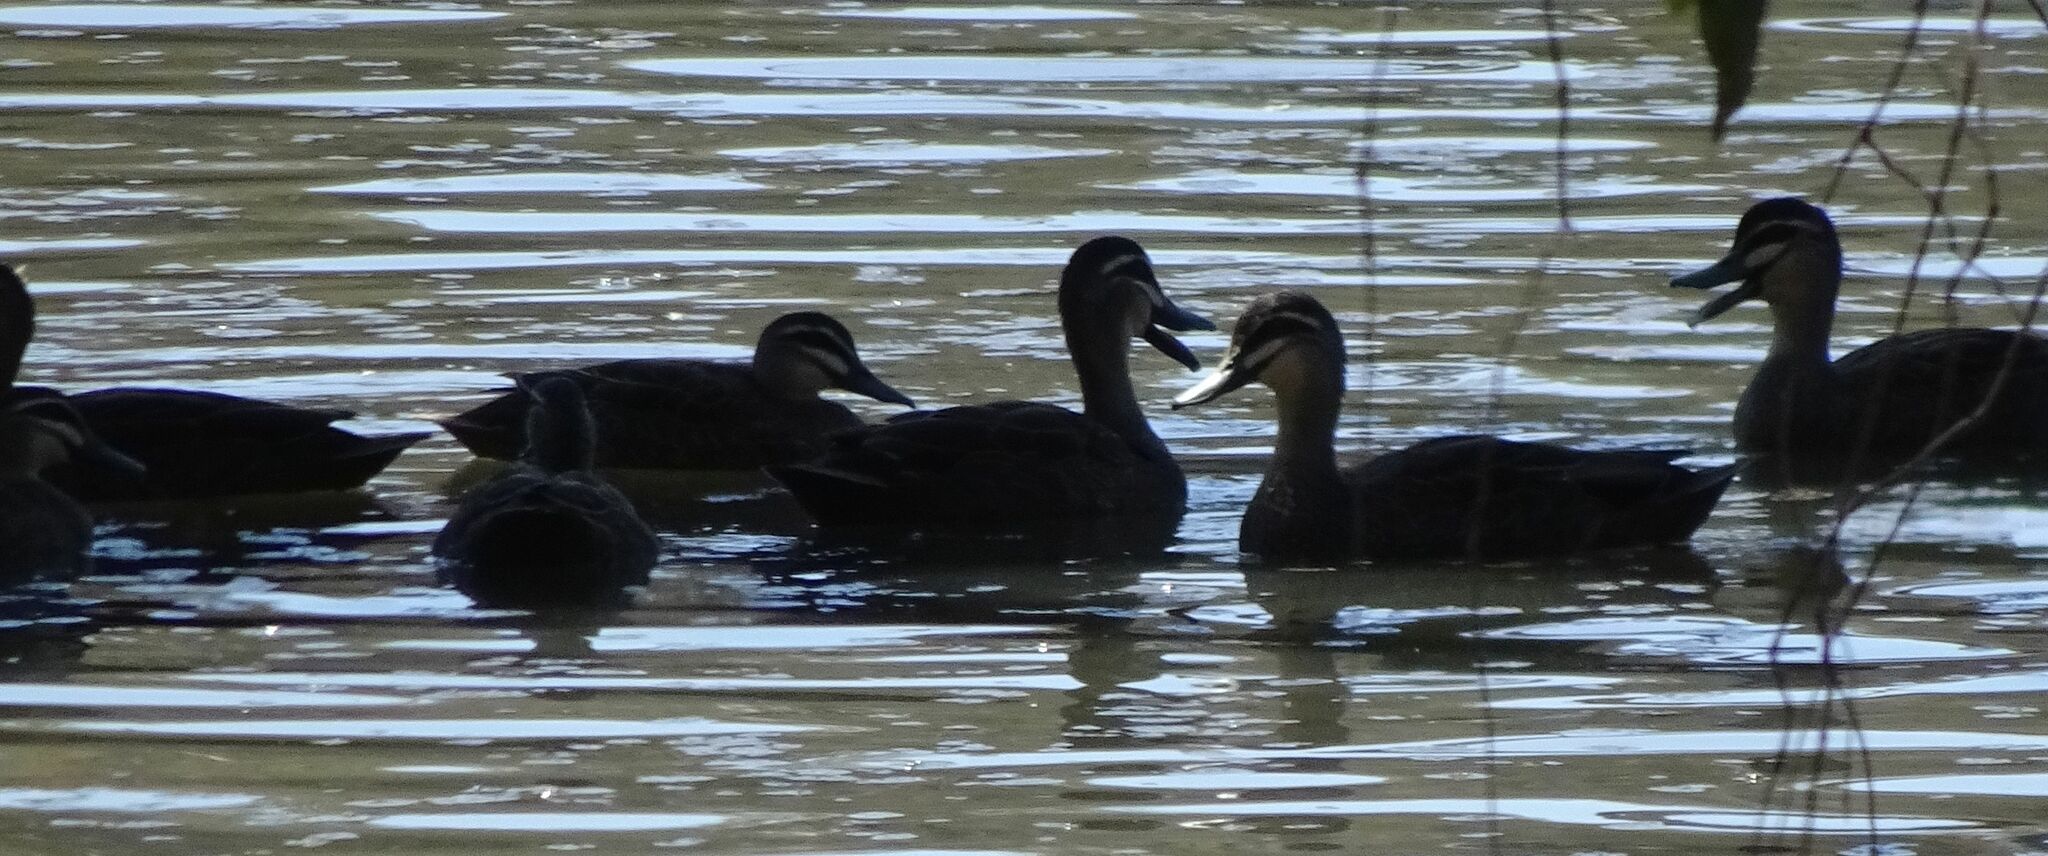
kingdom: Animalia
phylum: Chordata
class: Aves
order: Anseriformes
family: Anatidae
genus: Anas
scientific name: Anas superciliosa
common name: Pacific black duck
